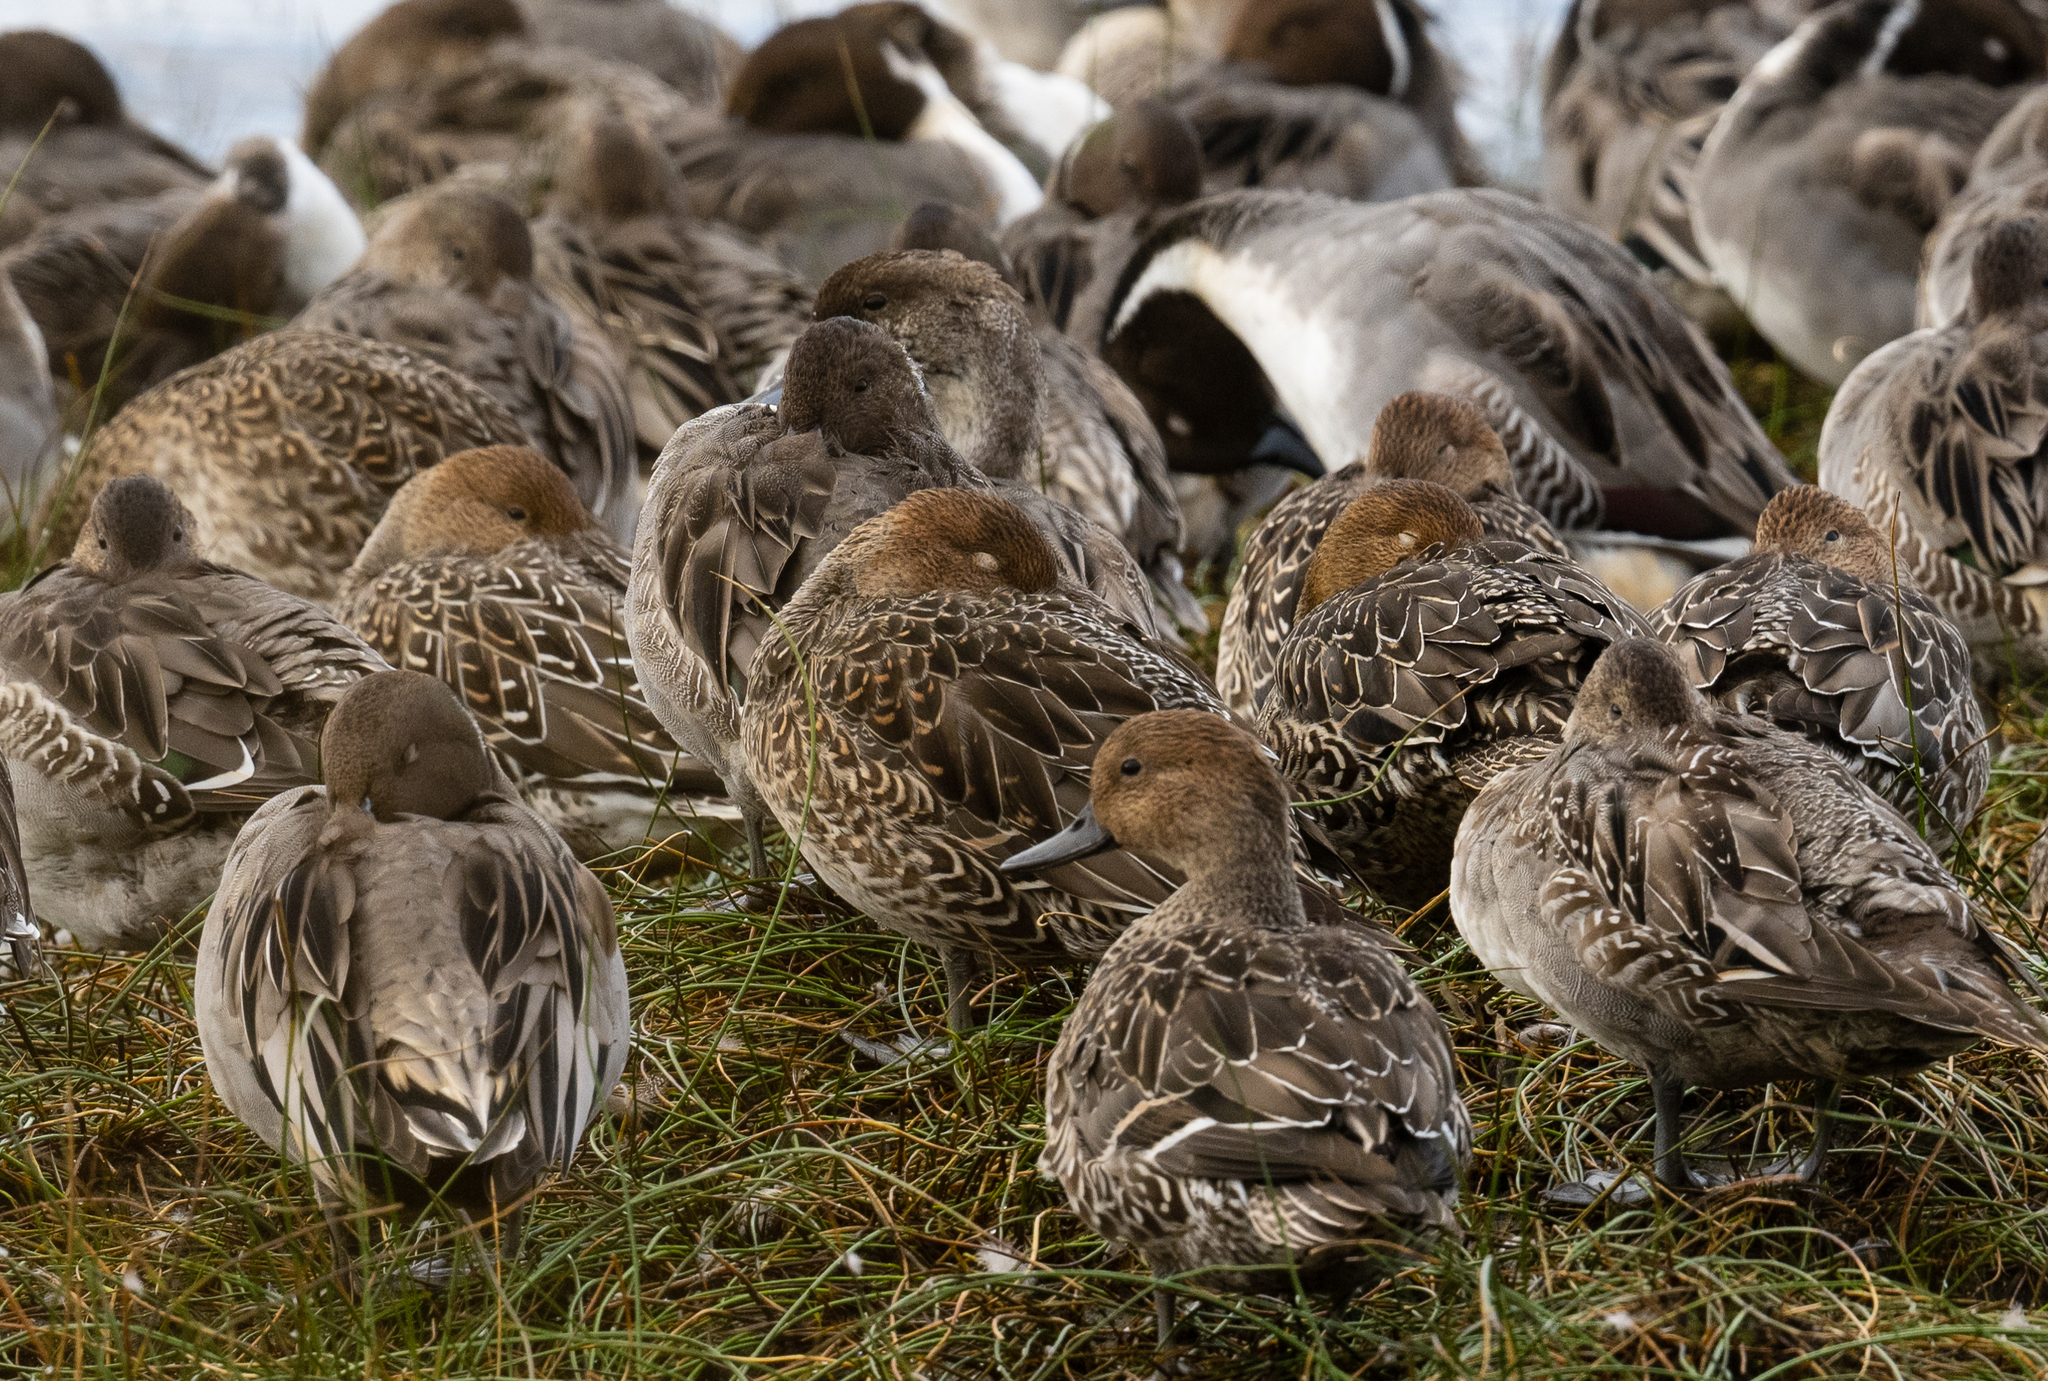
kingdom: Animalia
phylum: Chordata
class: Aves
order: Anseriformes
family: Anatidae
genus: Anas
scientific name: Anas acuta
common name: Northern pintail
